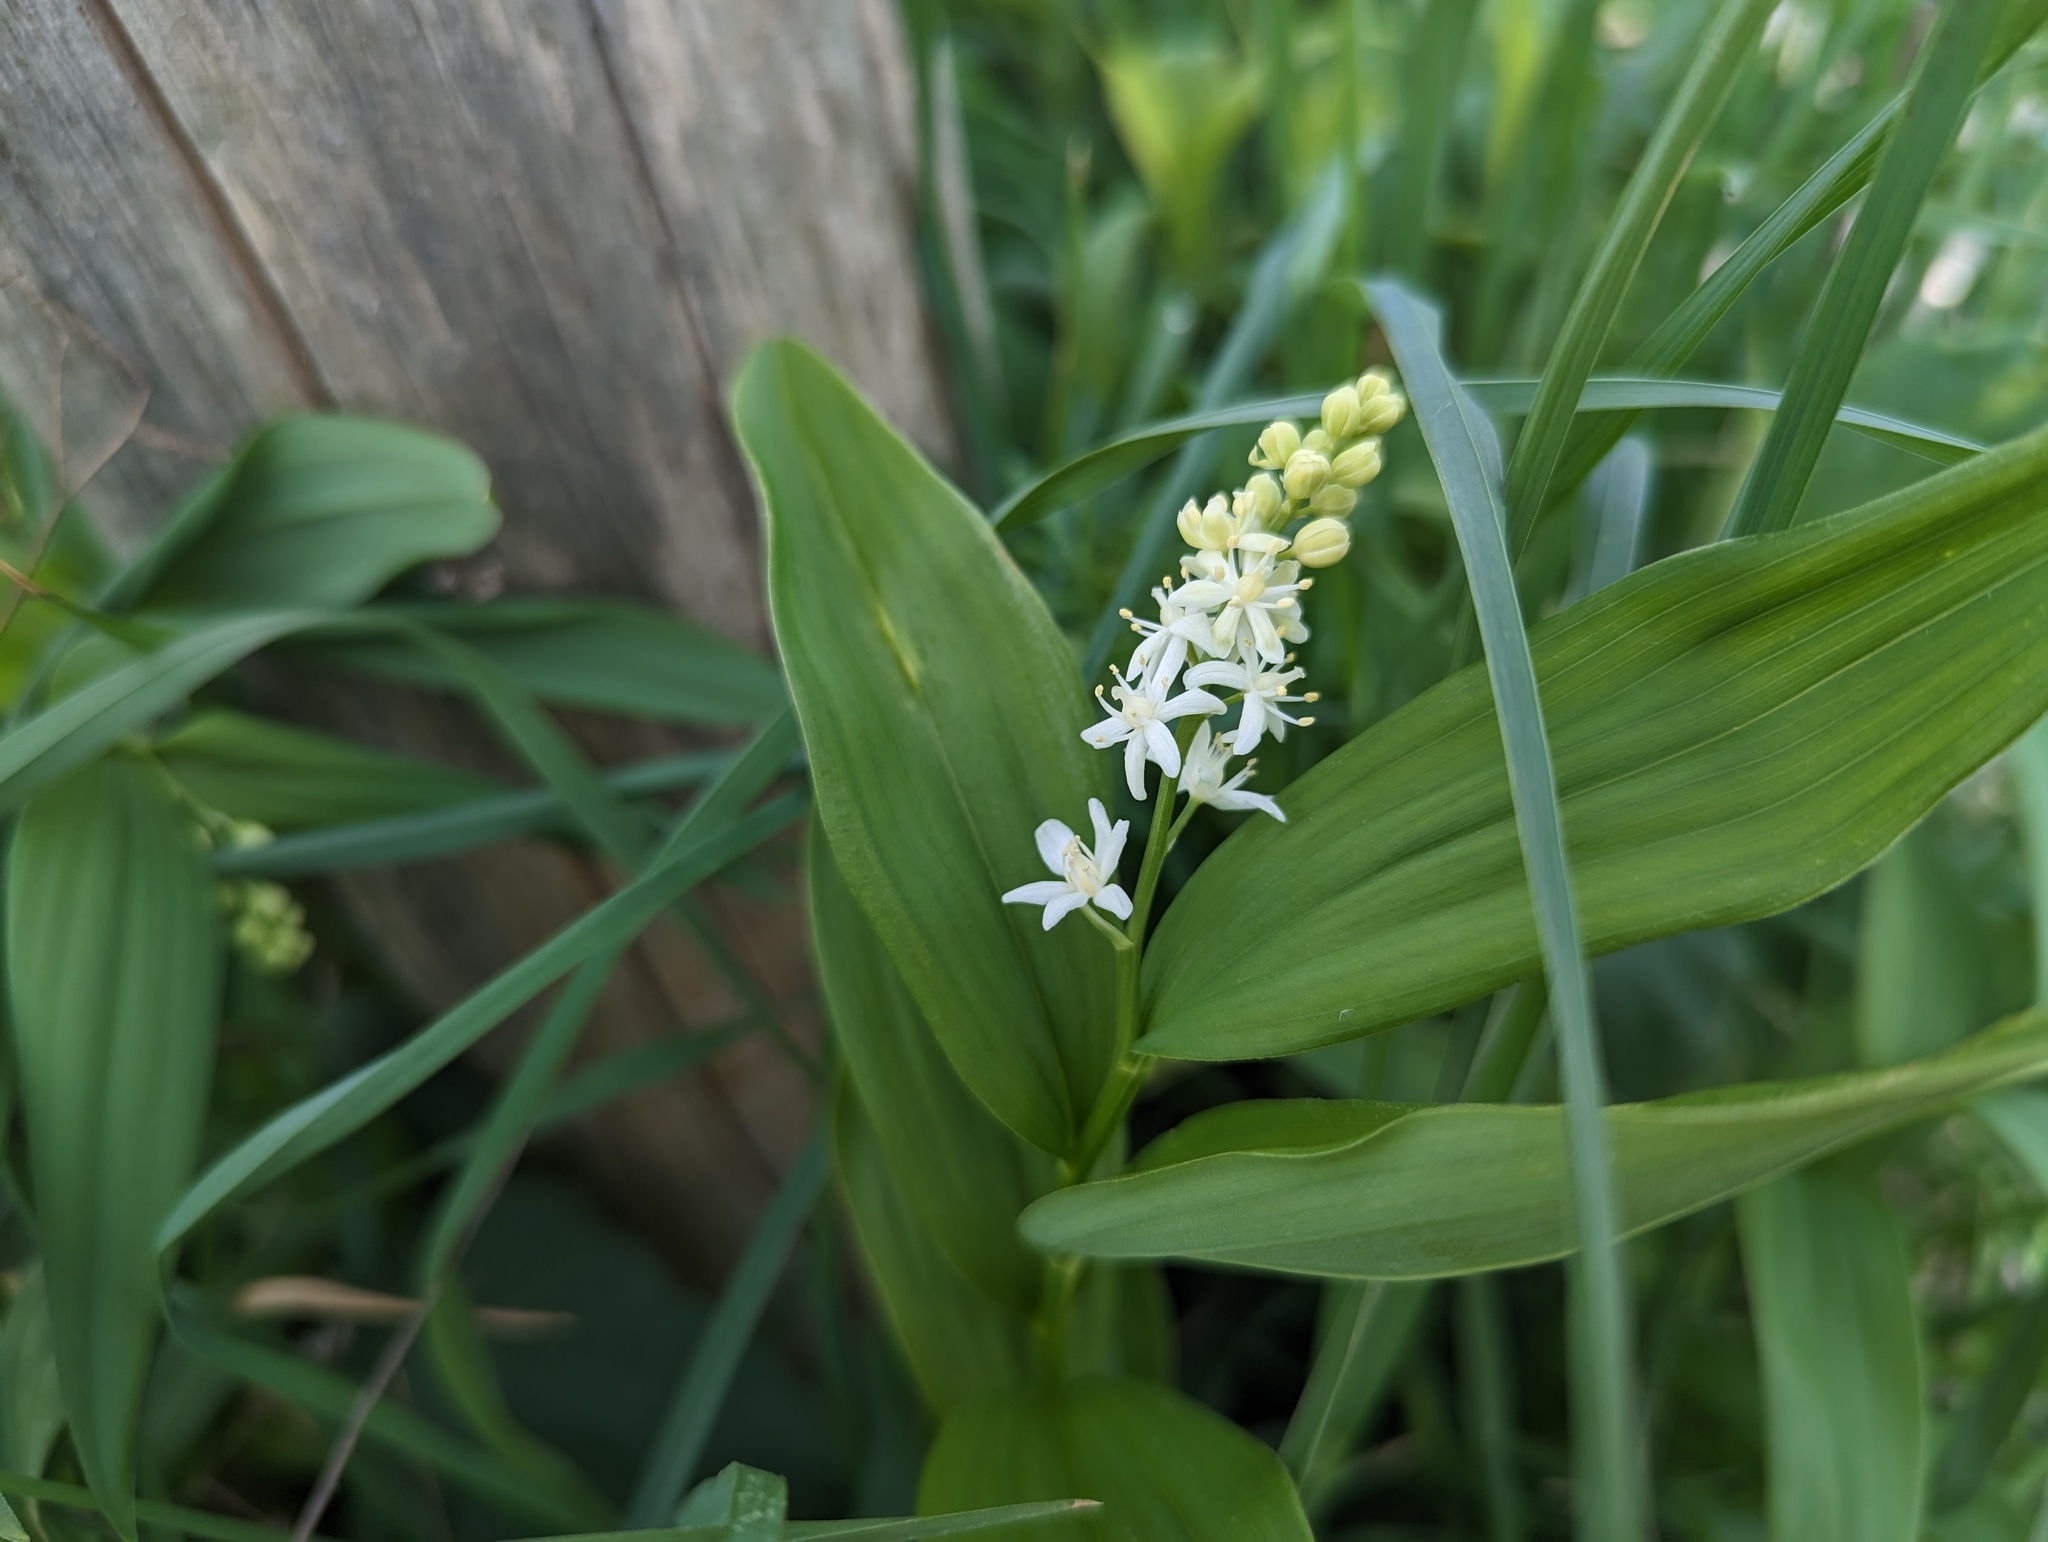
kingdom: Plantae
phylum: Tracheophyta
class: Liliopsida
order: Asparagales
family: Asparagaceae
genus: Maianthemum
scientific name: Maianthemum stellatum
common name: Little false solomon's seal
